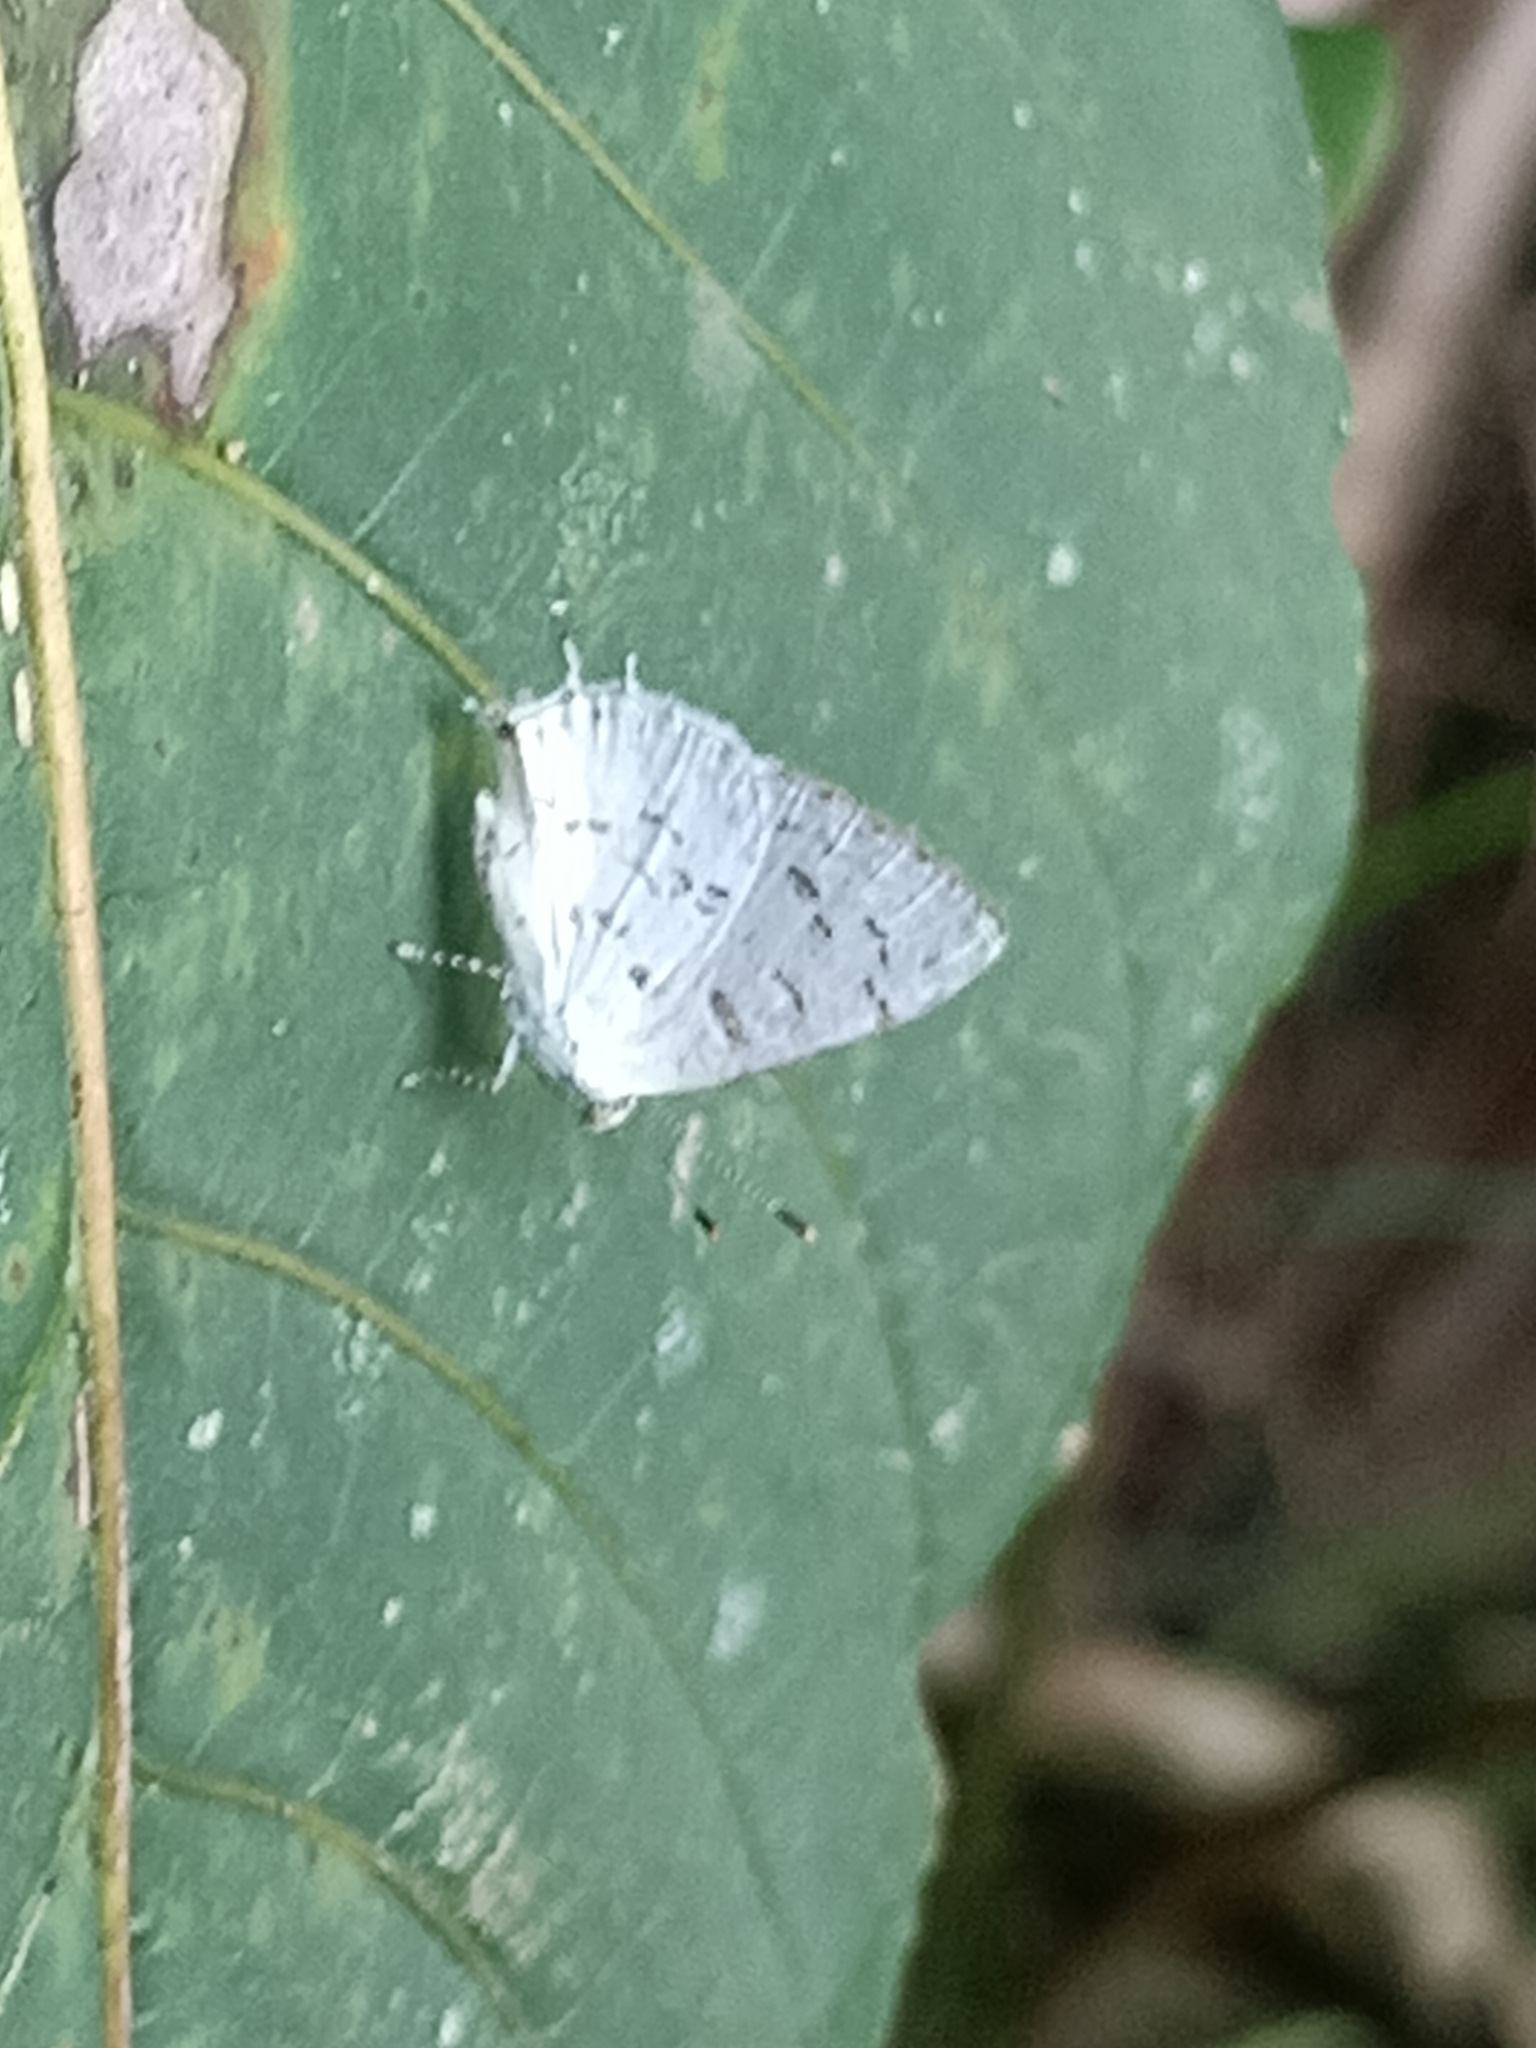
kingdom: Animalia
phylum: Arthropoda
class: Insecta
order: Lepidoptera
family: Lycaenidae
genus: Thecla
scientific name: Thecla una
